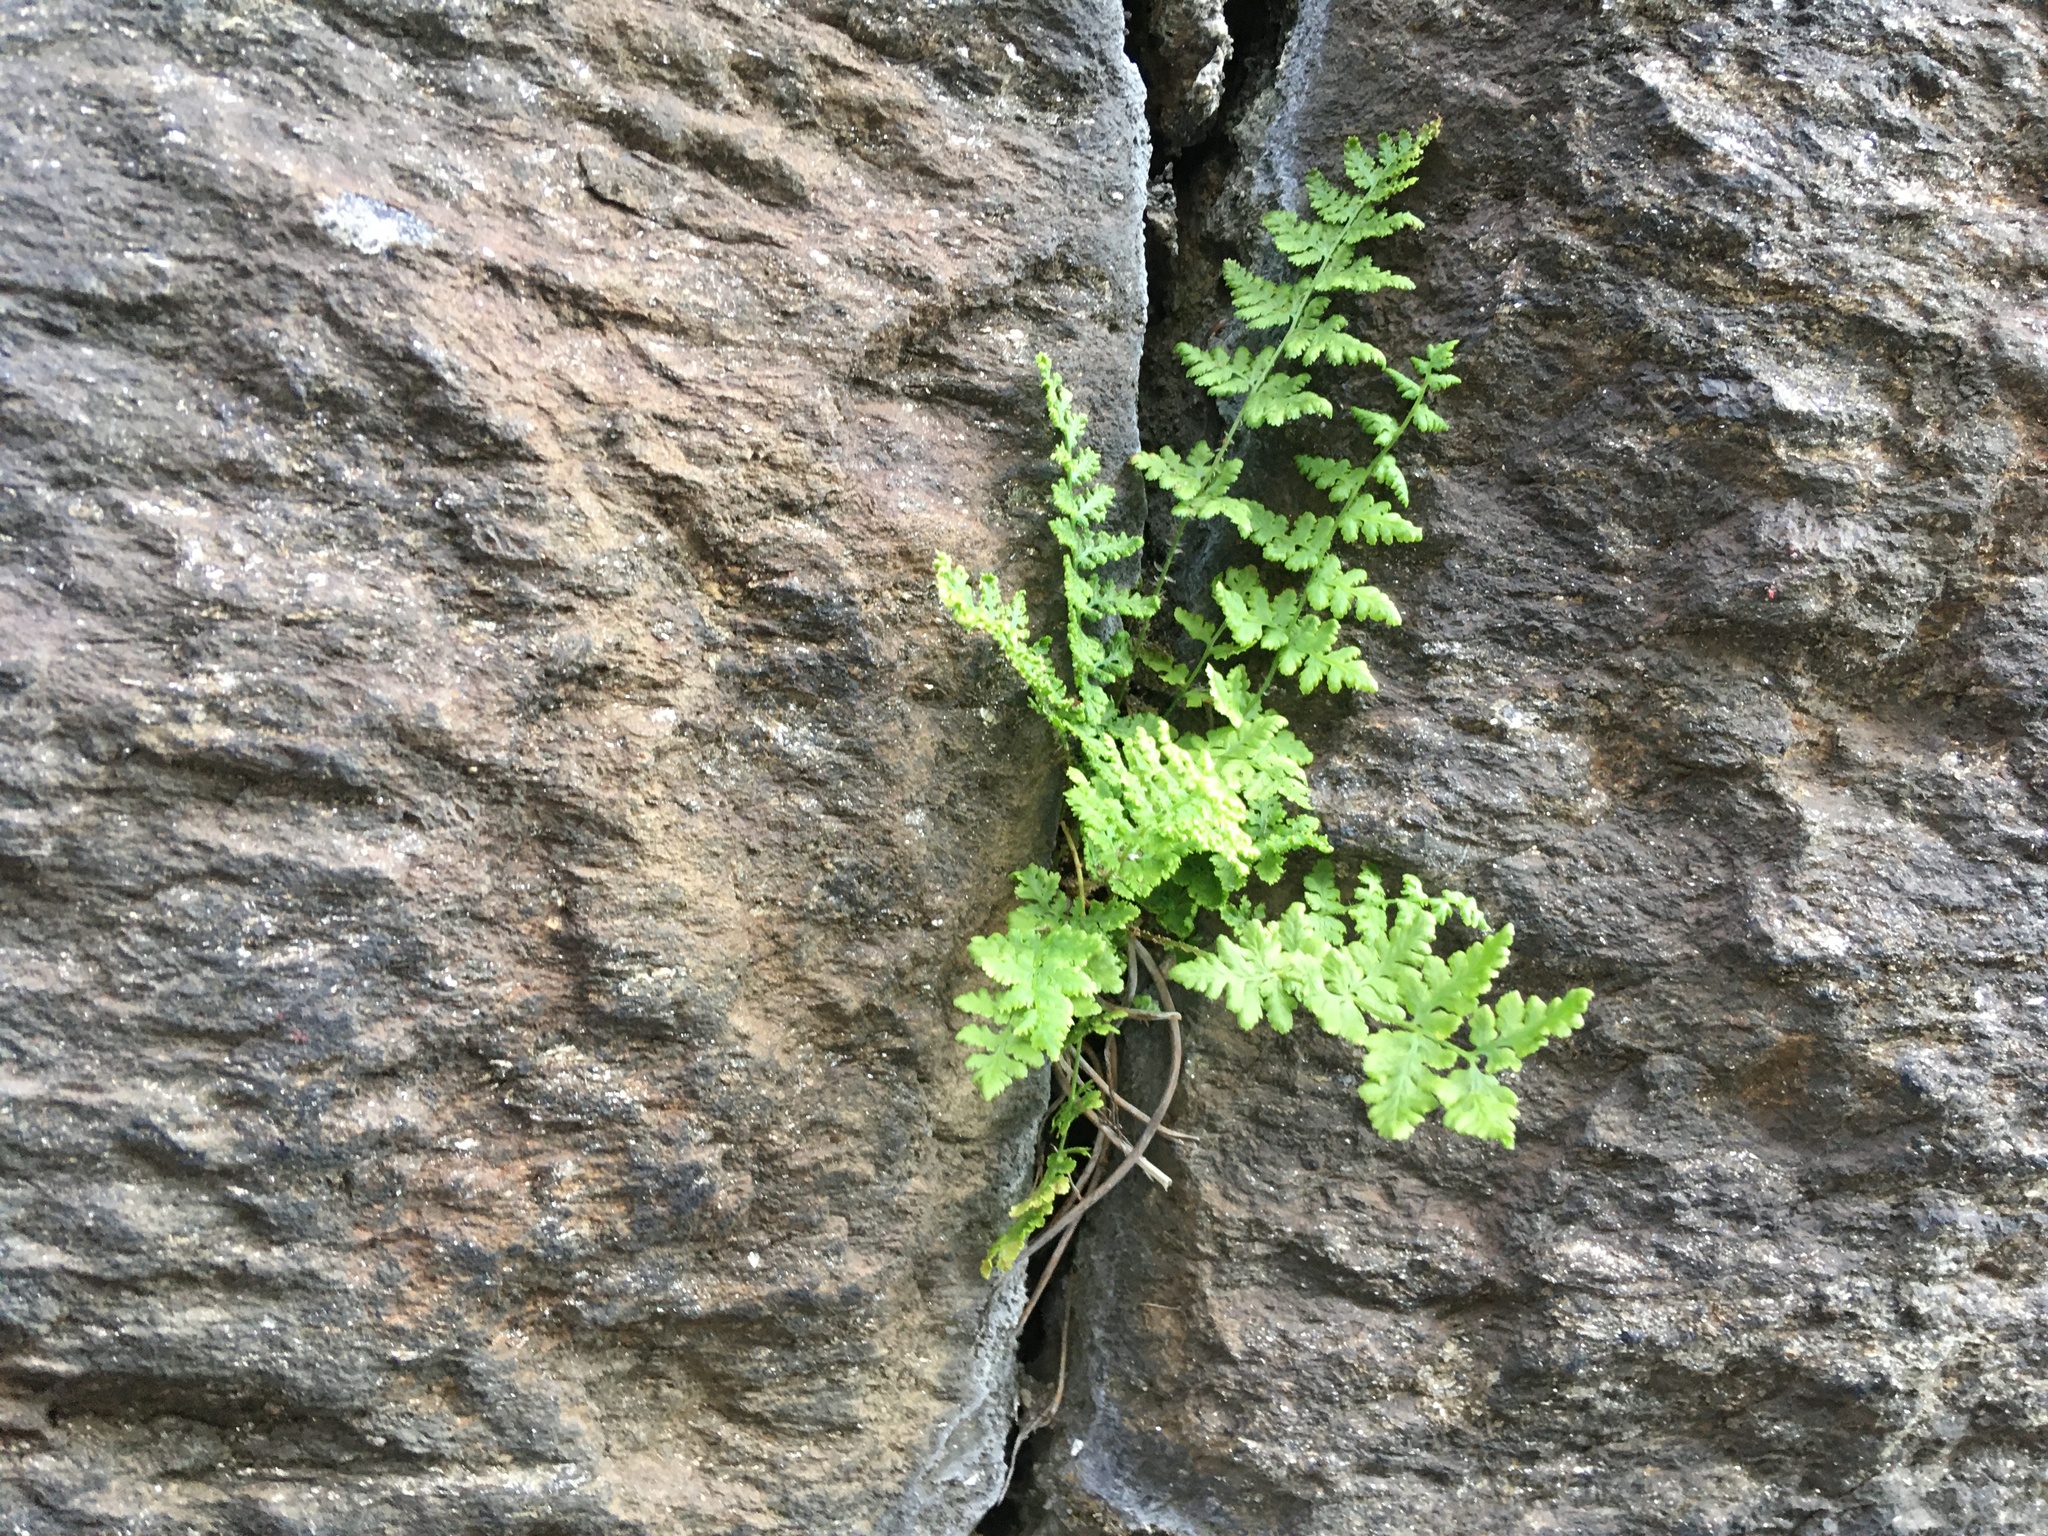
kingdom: Plantae
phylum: Tracheophyta
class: Polypodiopsida
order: Polypodiales
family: Woodsiaceae
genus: Physematium
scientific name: Physematium obtusum
